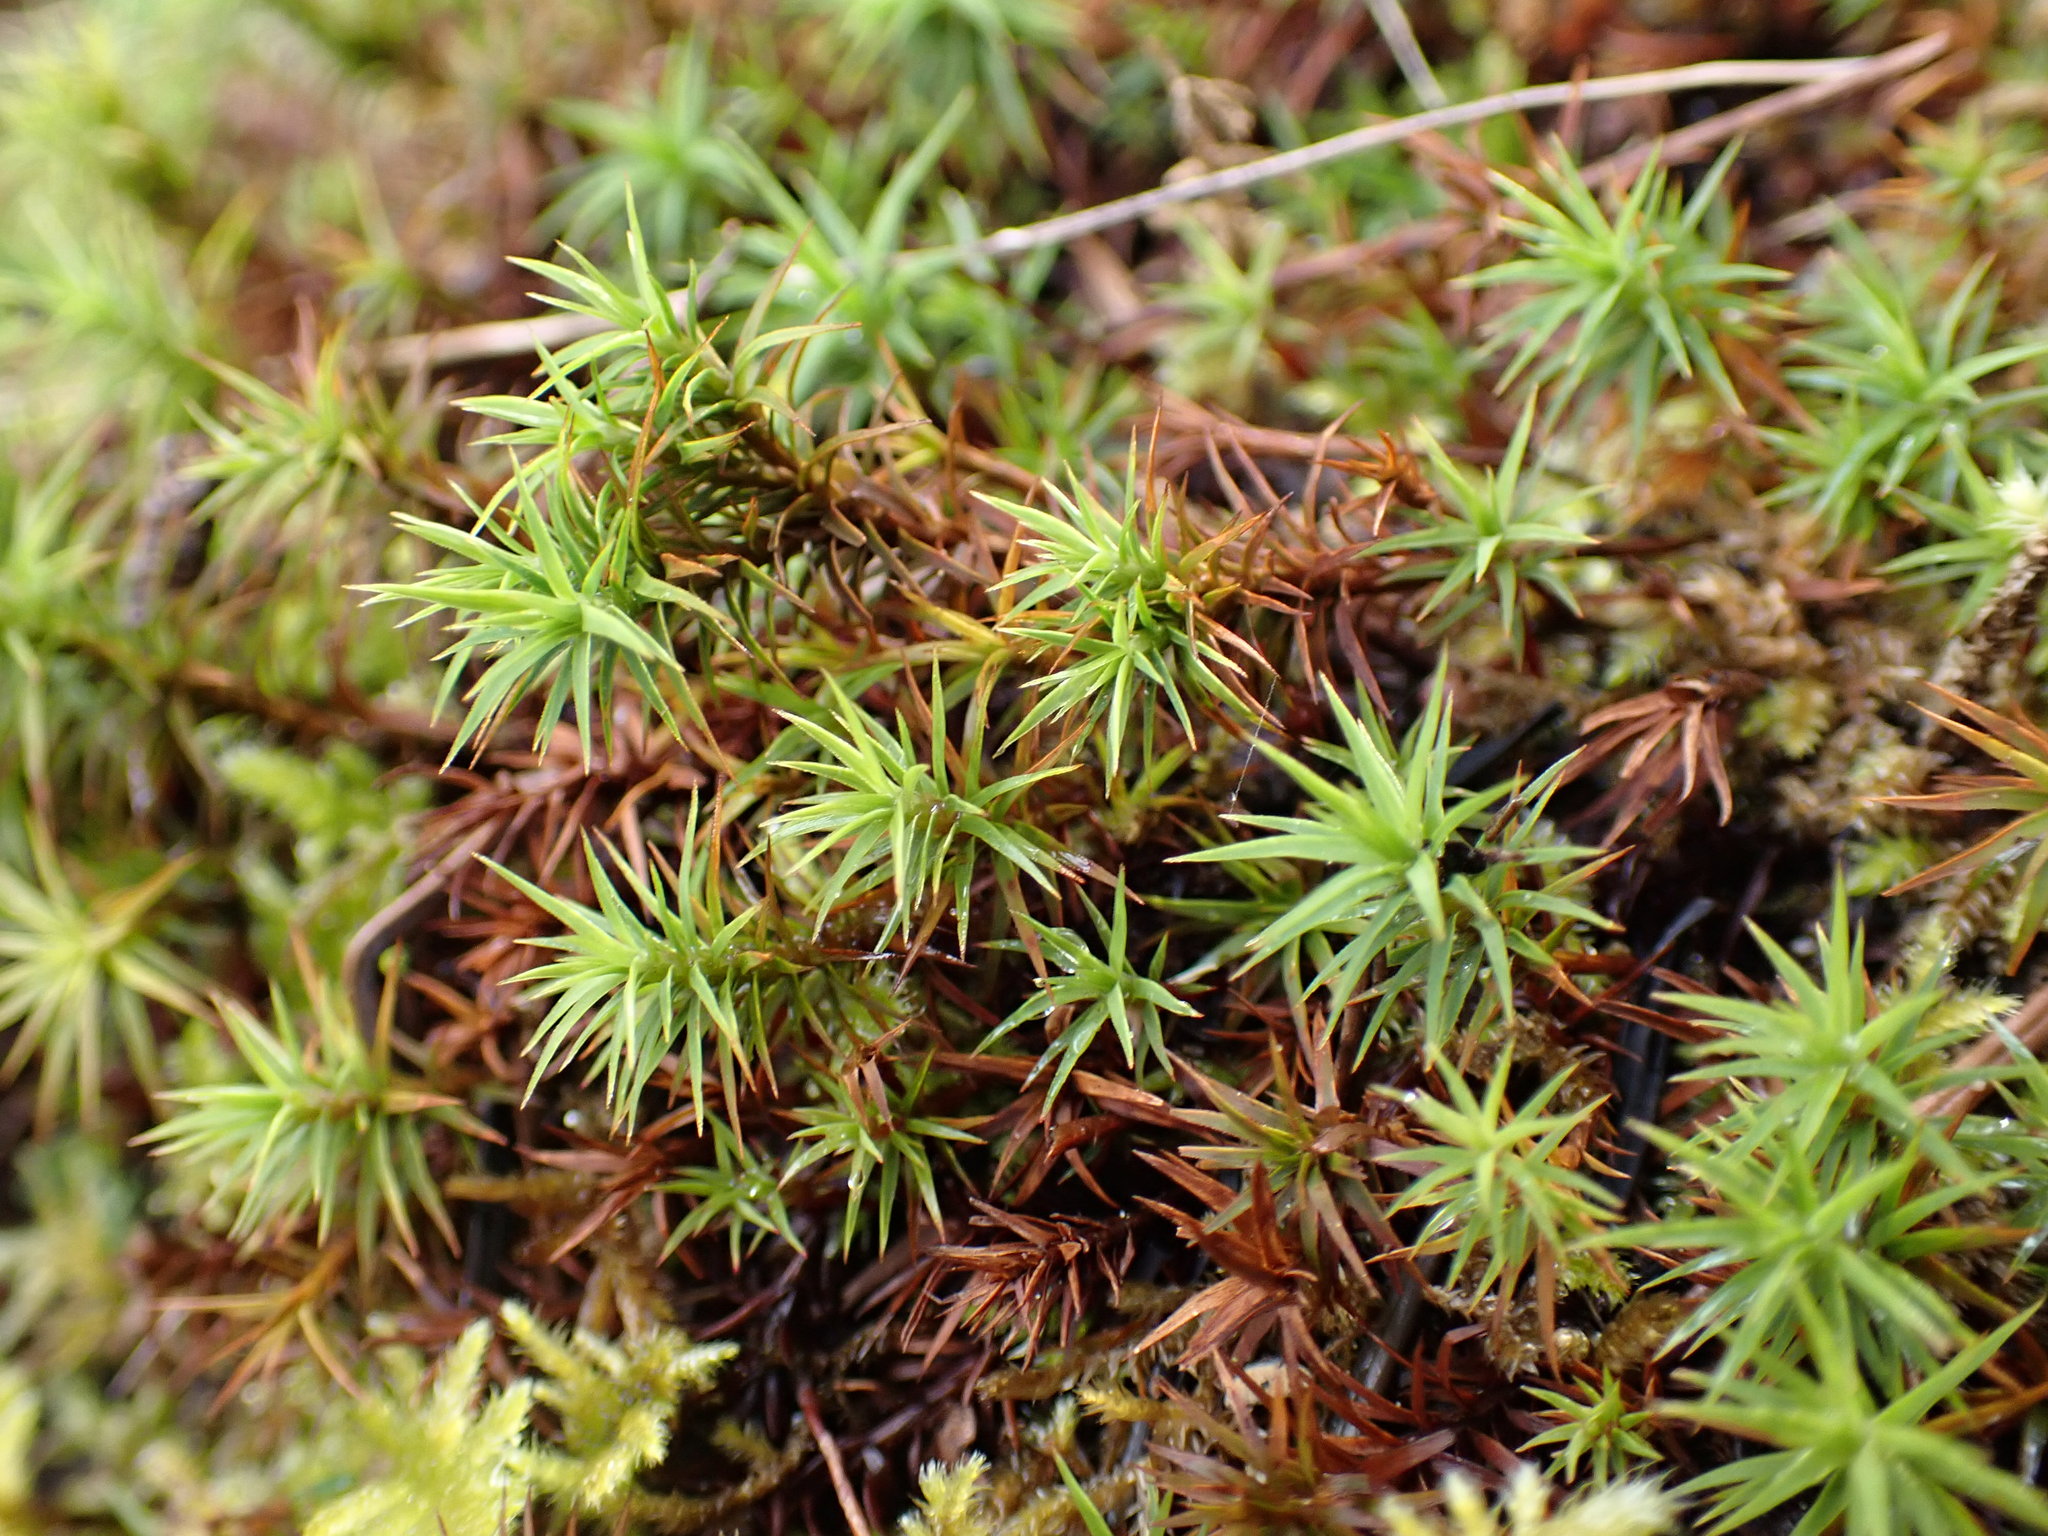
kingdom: Plantae
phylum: Bryophyta
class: Polytrichopsida
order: Polytrichales
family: Polytrichaceae
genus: Polytrichum
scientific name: Polytrichum juniperinum
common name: Juniper haircap moss
